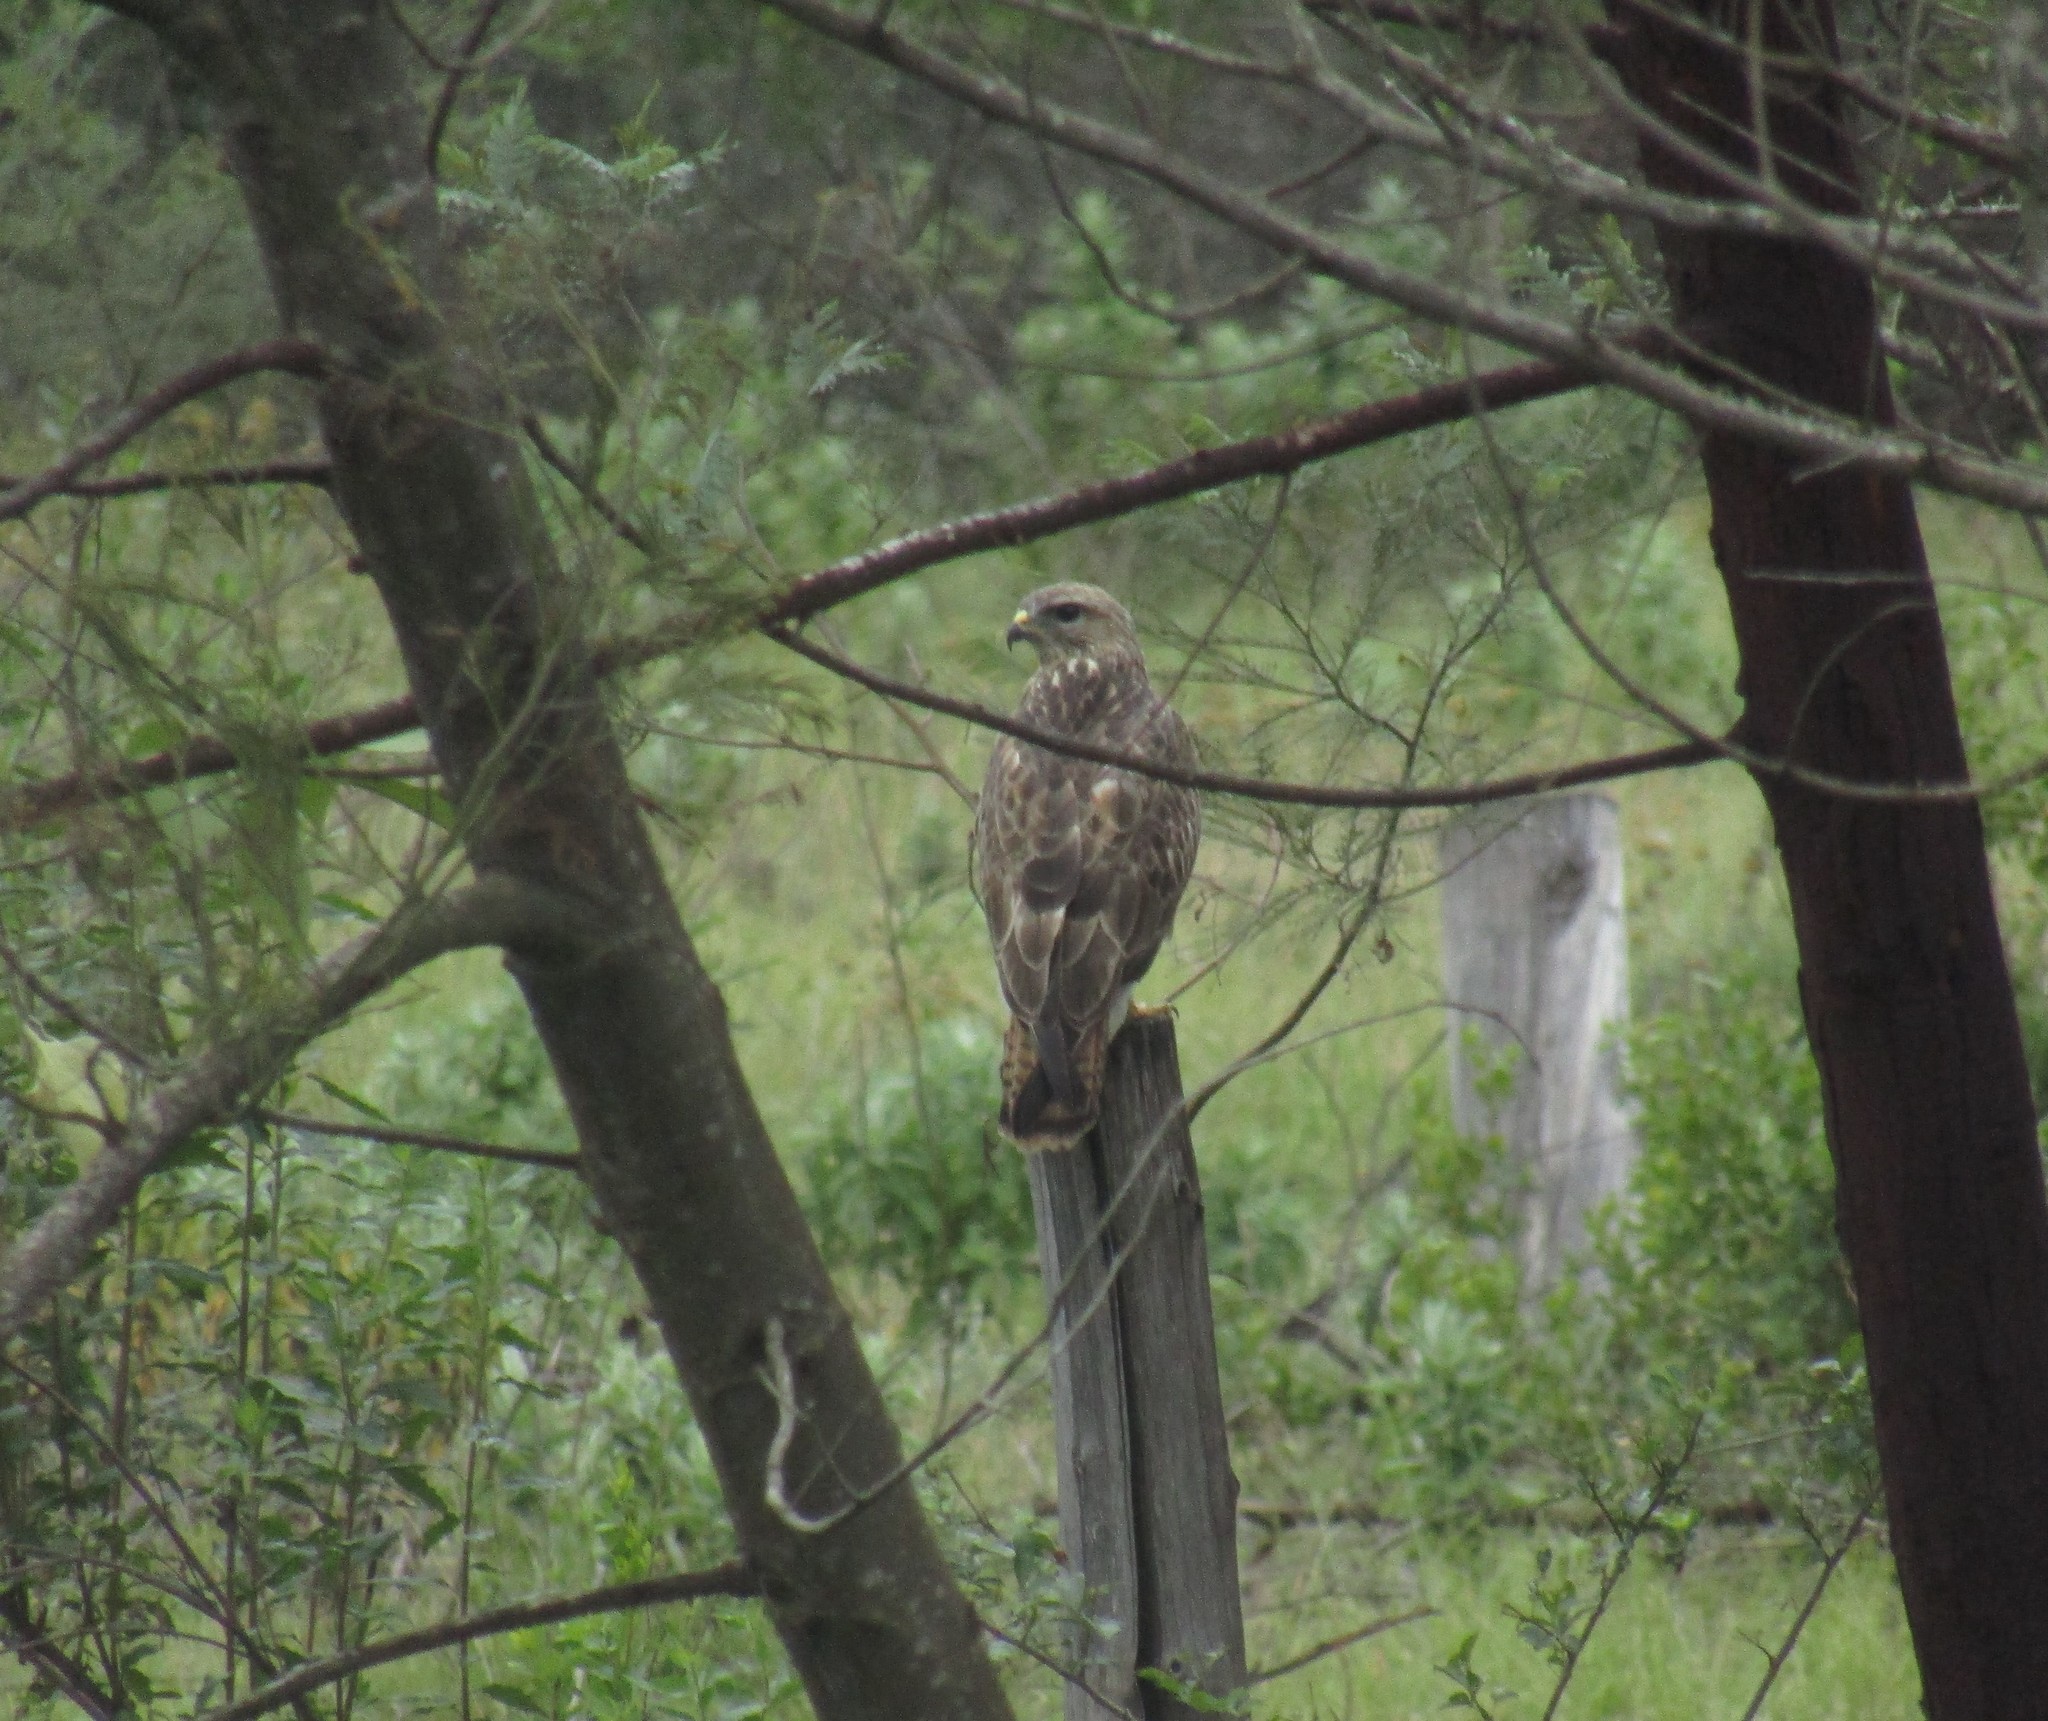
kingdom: Animalia
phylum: Chordata
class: Aves
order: Accipitriformes
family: Accipitridae
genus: Buteo
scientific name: Buteo trizonatus
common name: Forest buzzard
